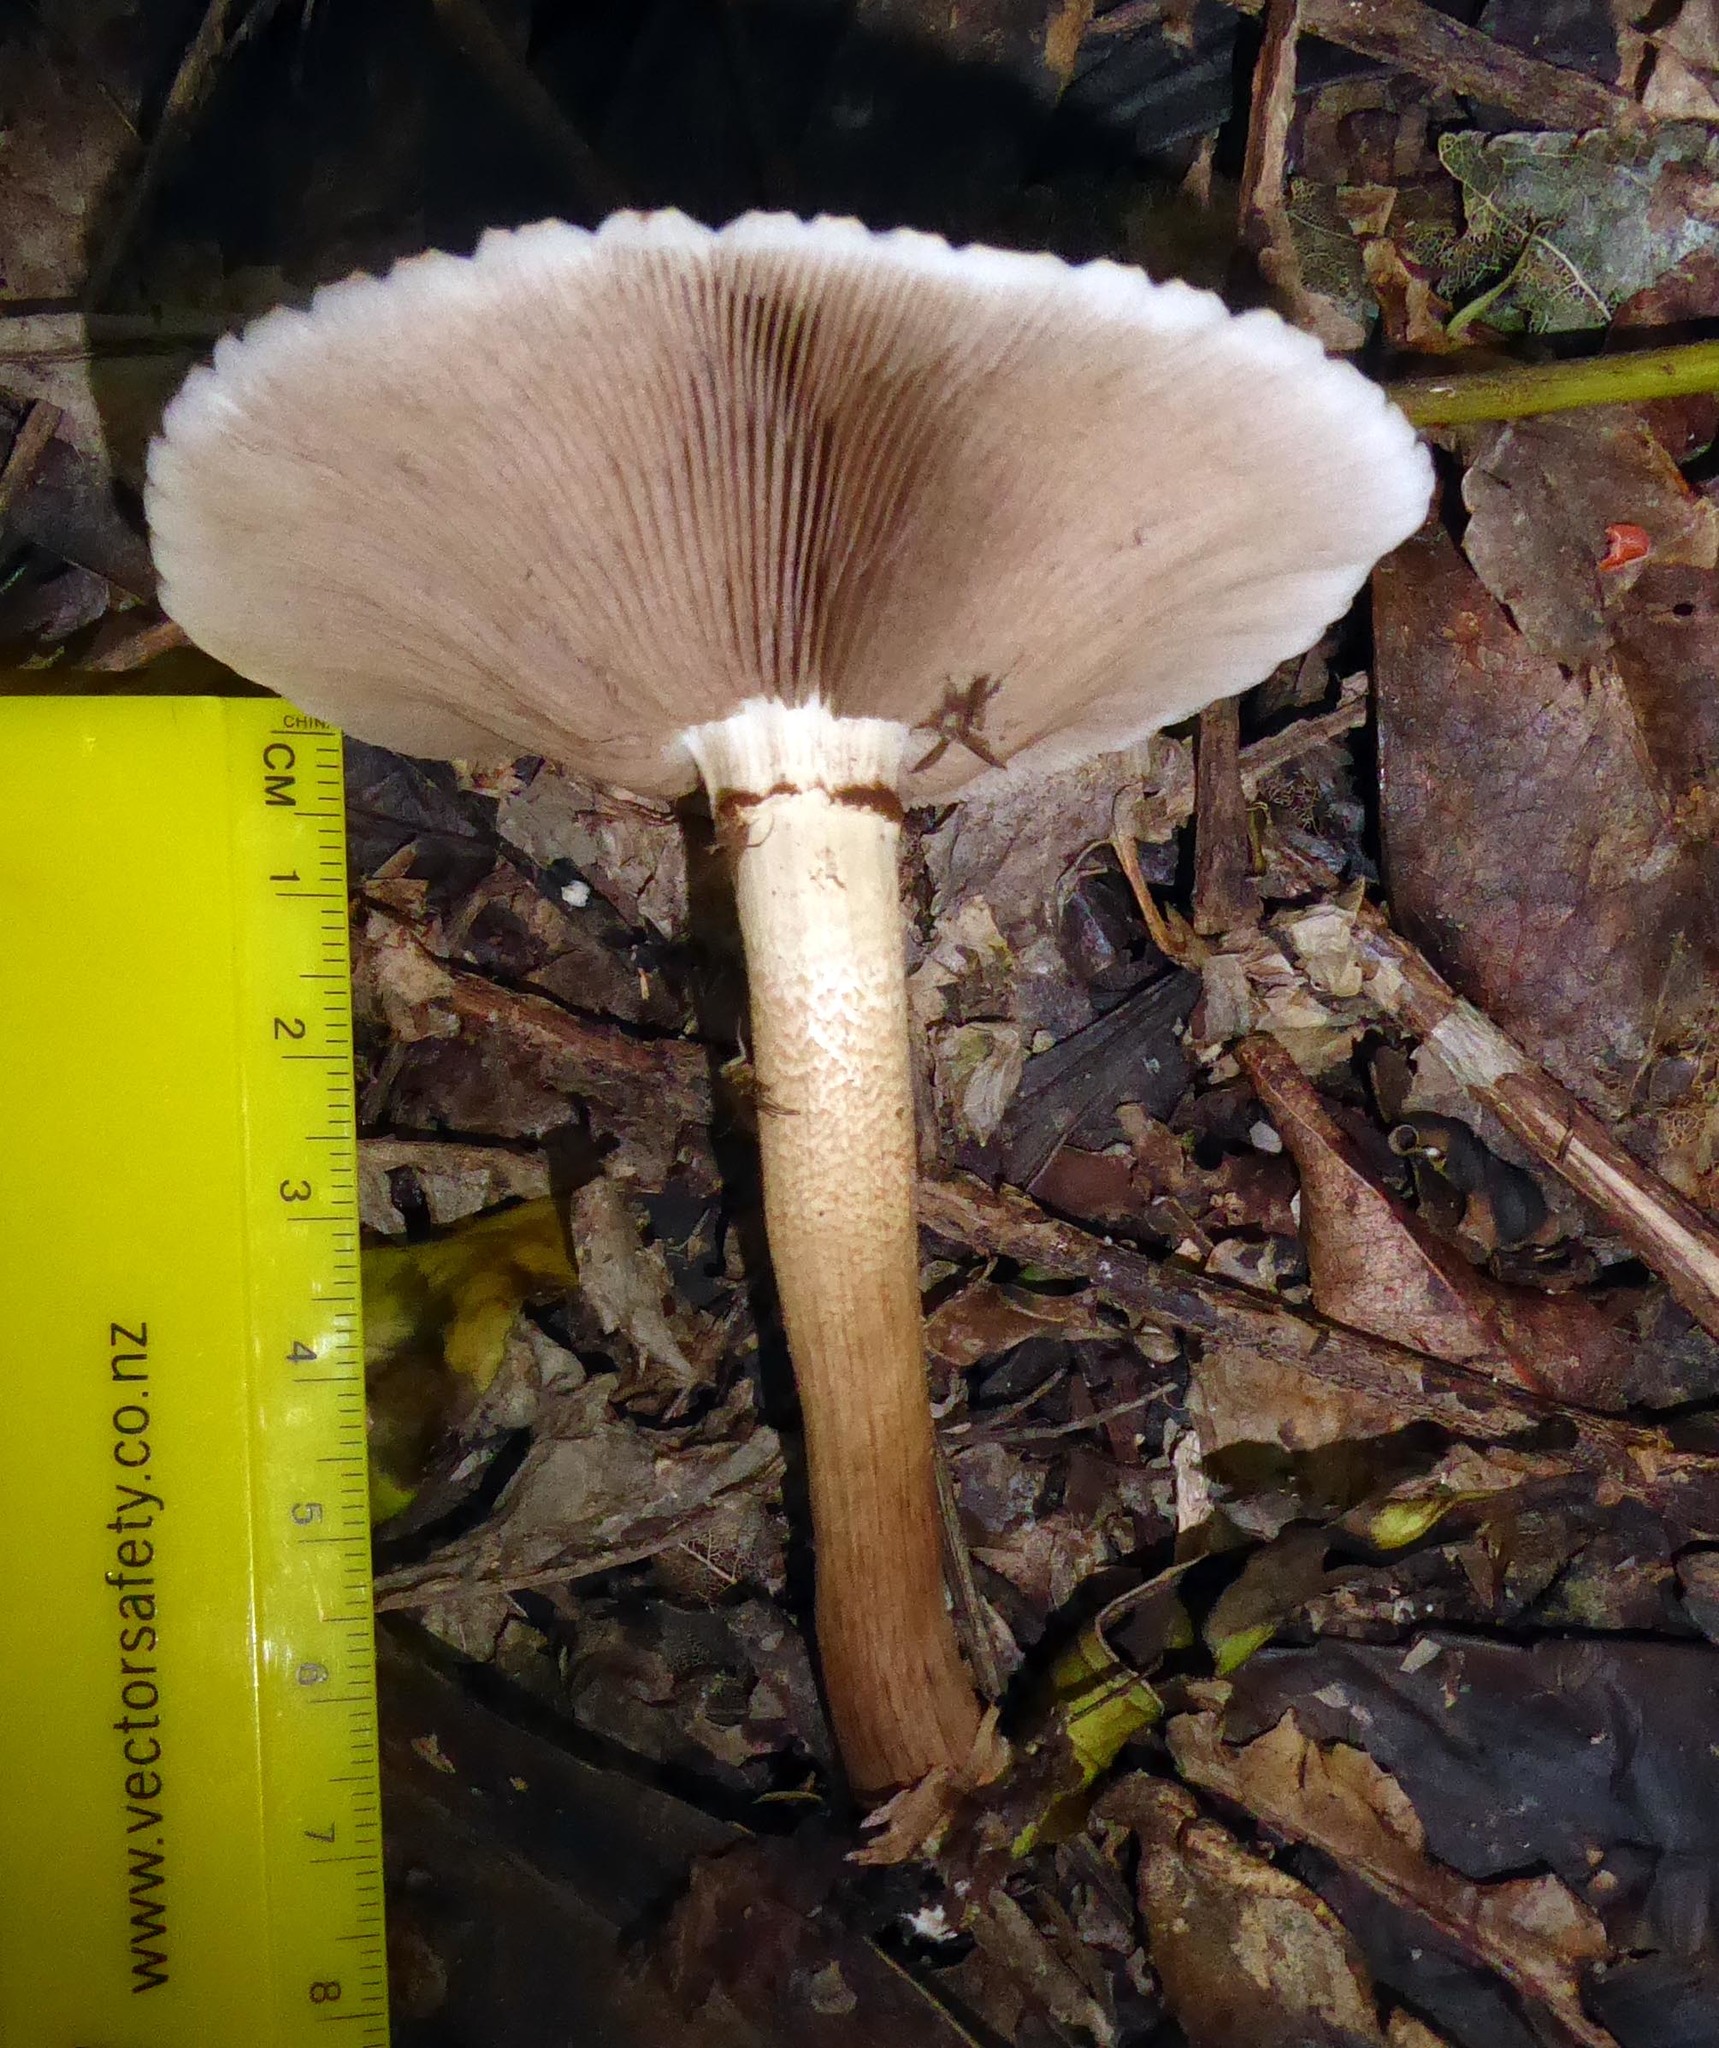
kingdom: Fungi
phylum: Basidiomycota
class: Agaricomycetes
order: Agaricales
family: Tubariaceae
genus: Cyclocybe
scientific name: Cyclocybe parasitica
